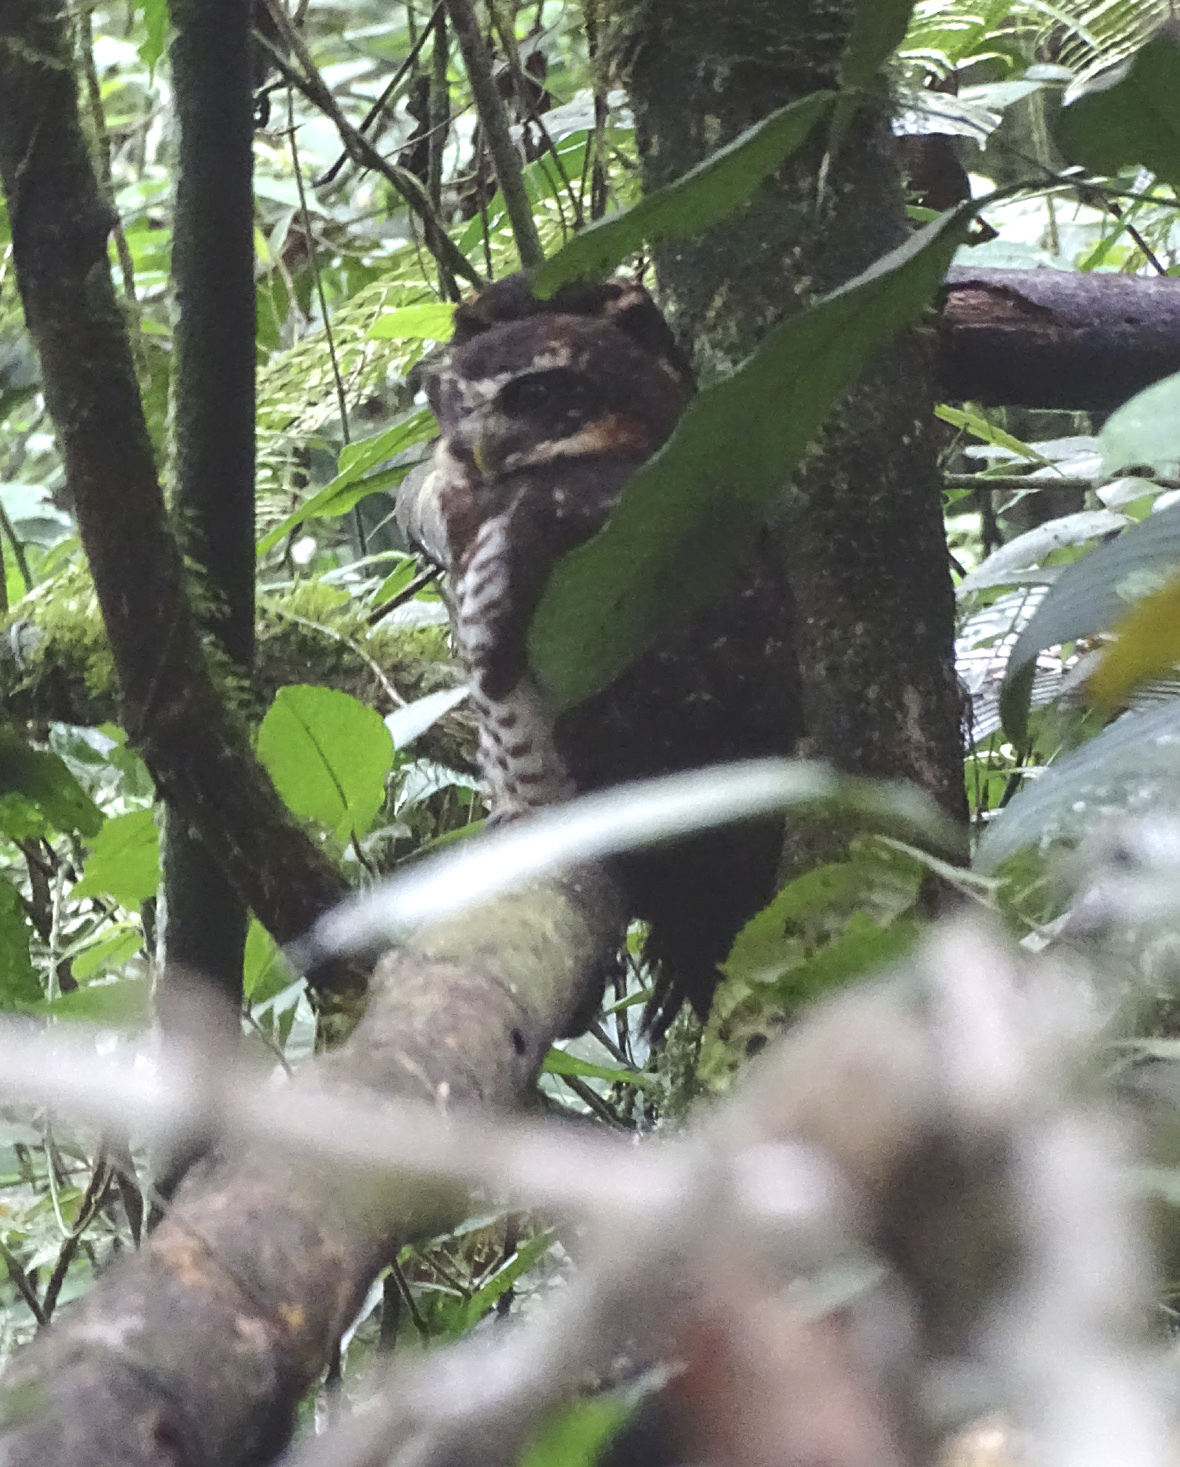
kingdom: Animalia
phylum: Chordata
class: Aves
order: Strigiformes
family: Strigidae
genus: Pulsatrix
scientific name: Pulsatrix melanota
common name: Band-bellied owl
